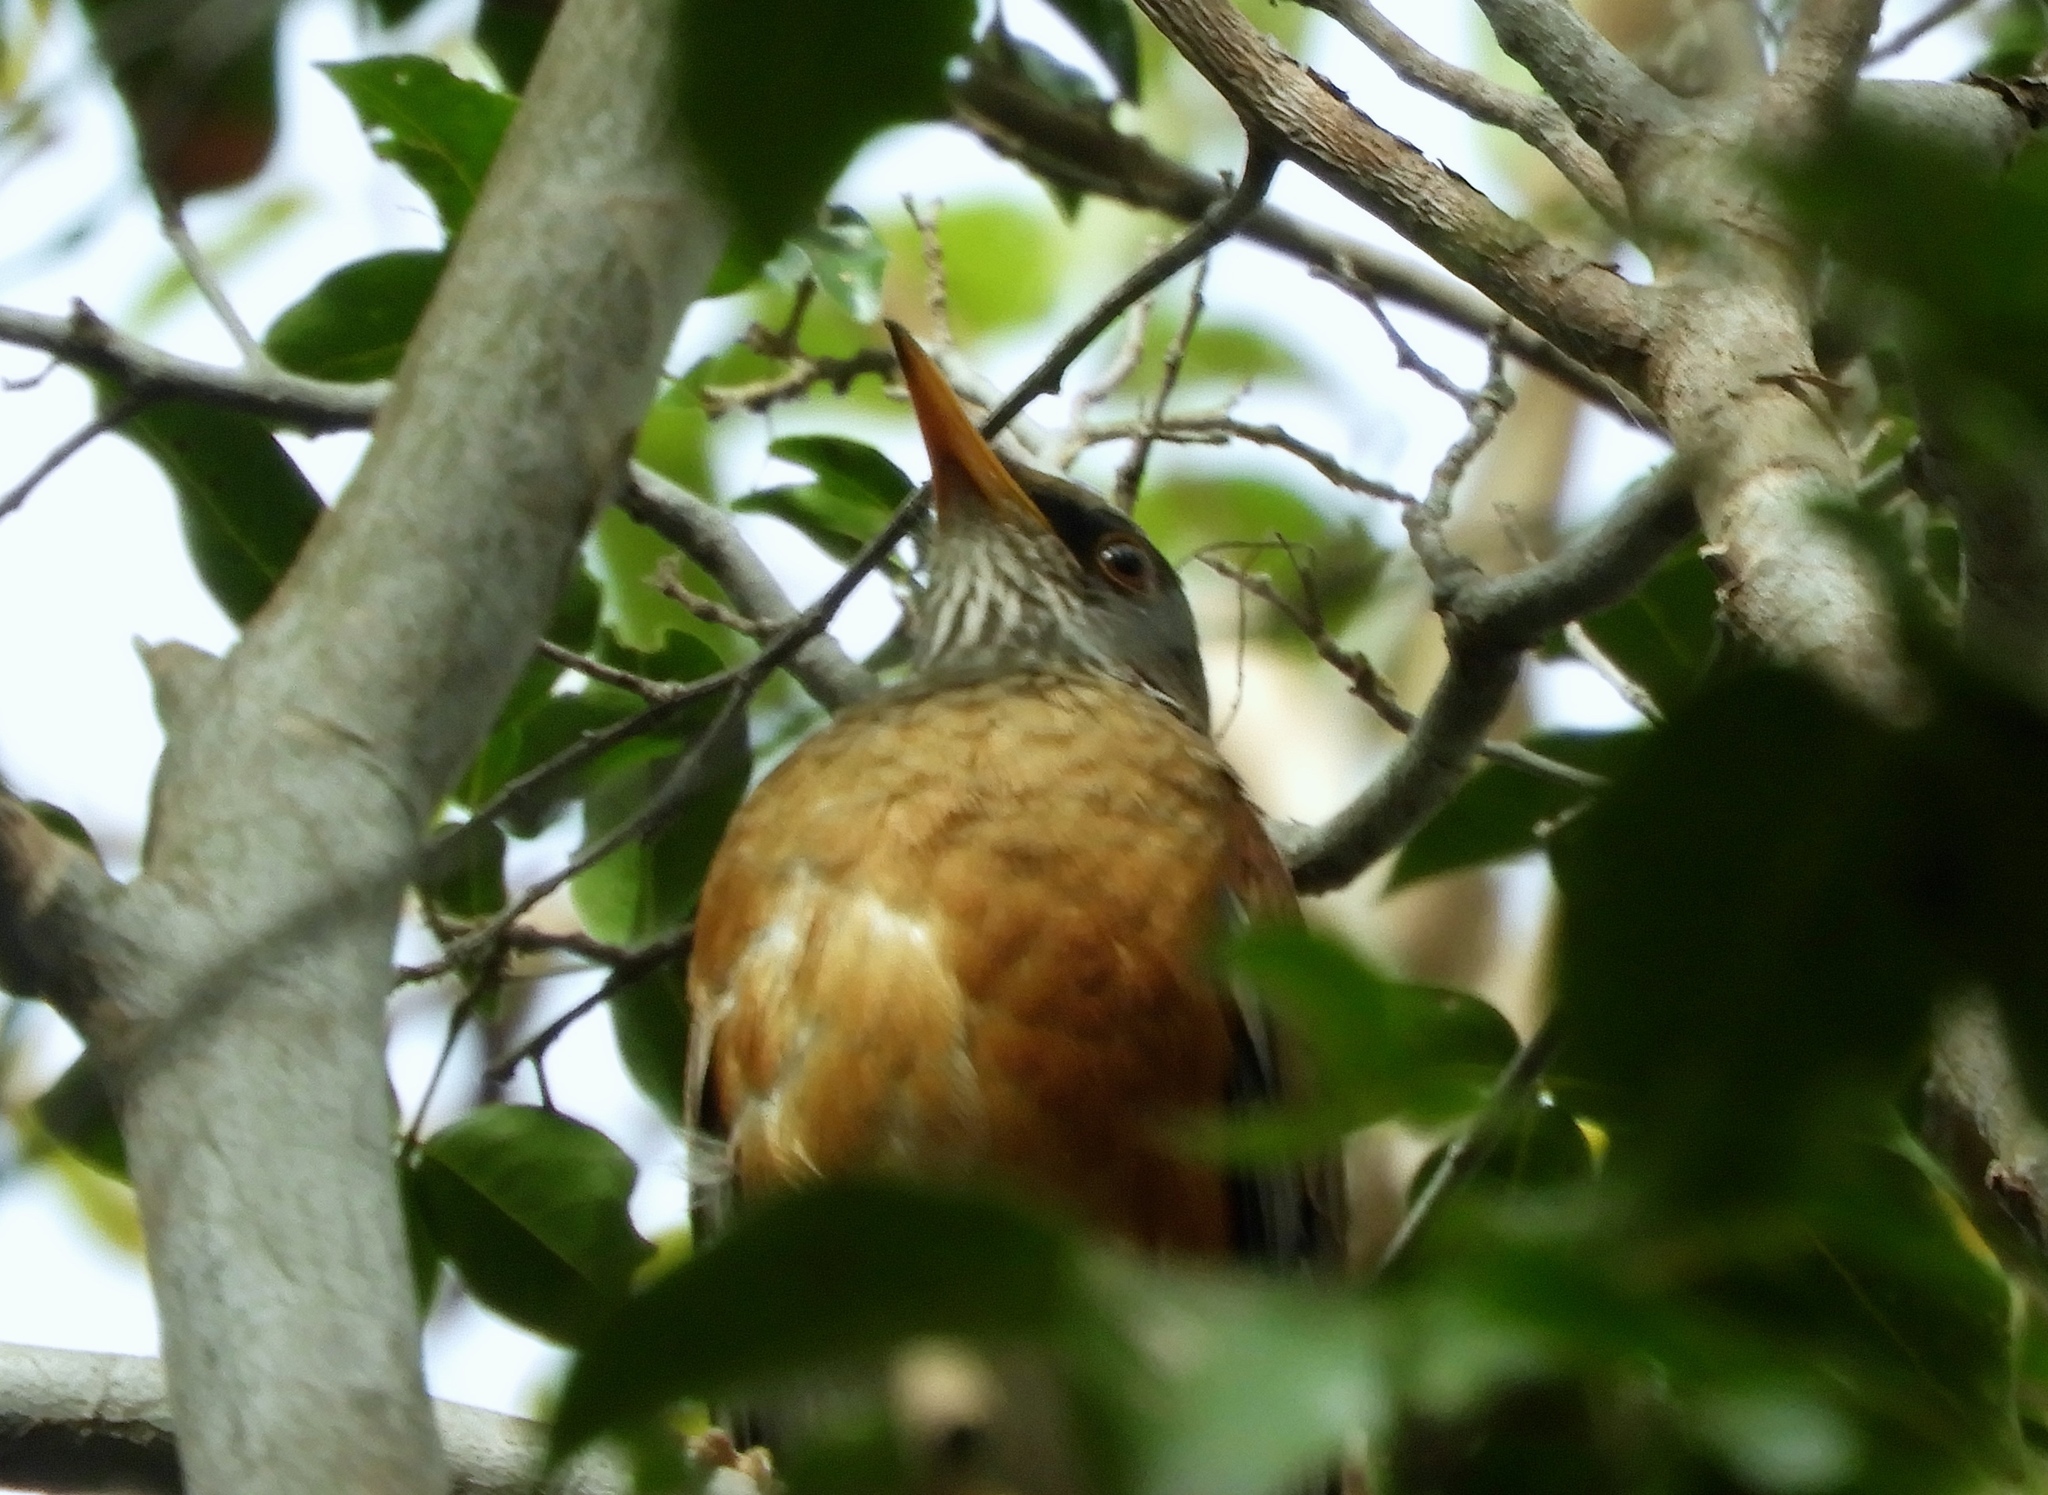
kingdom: Animalia
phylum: Chordata
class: Aves
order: Passeriformes
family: Turdidae
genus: Turdus
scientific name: Turdus rufopalliatus
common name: Rufous-backed robin
